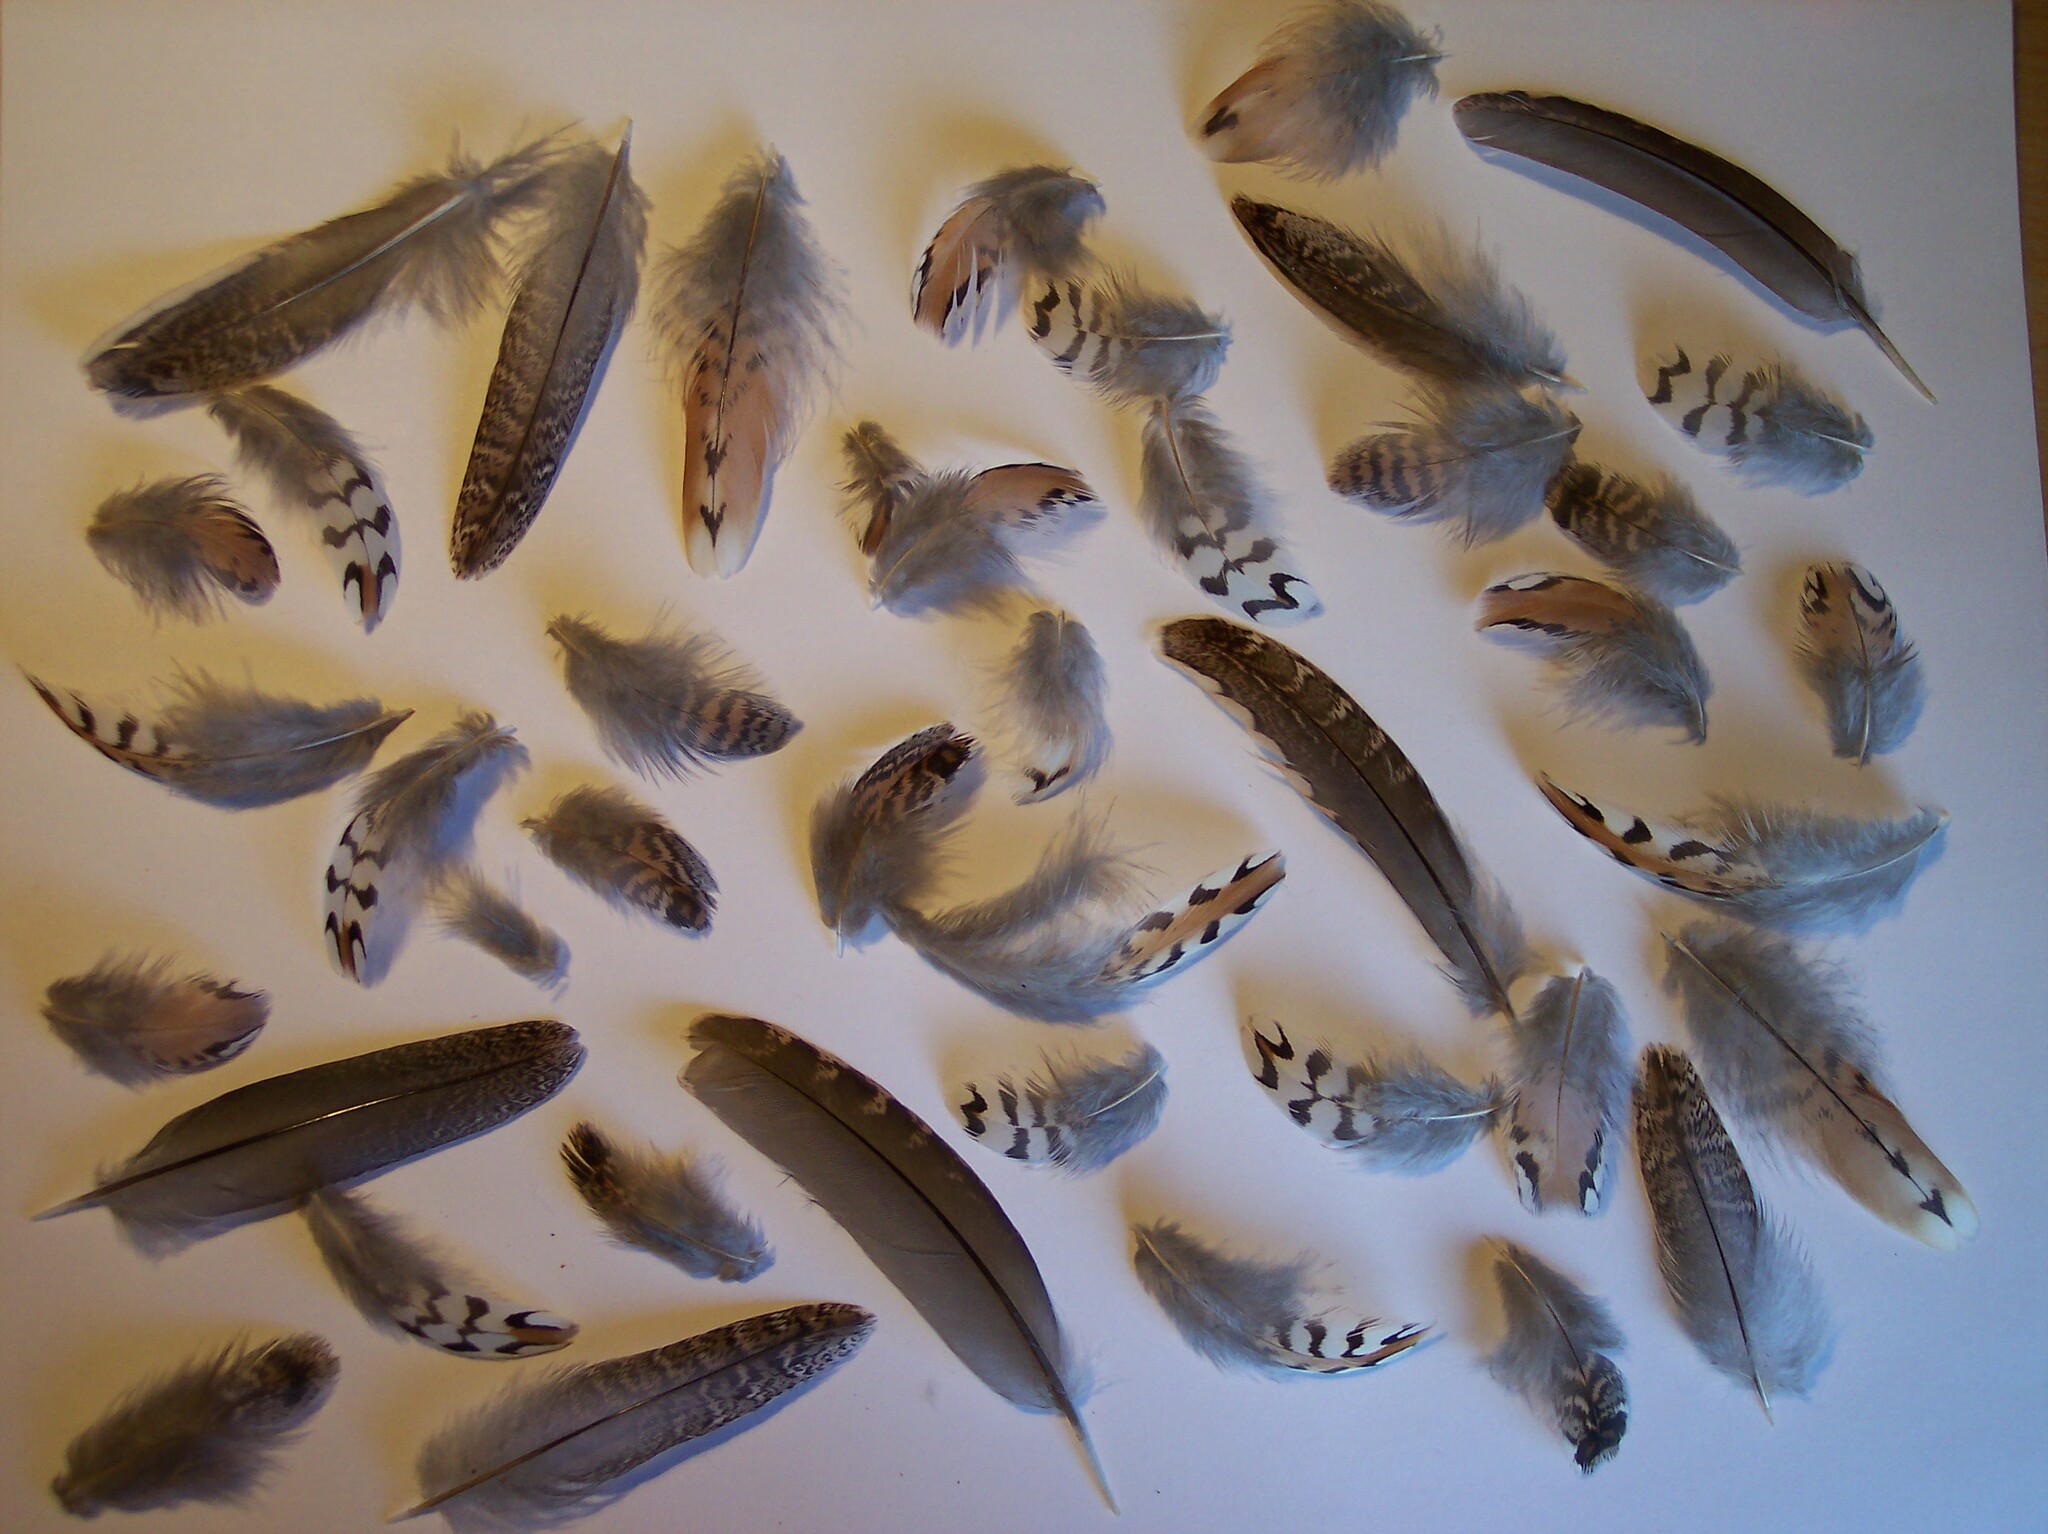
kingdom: Animalia
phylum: Chordata
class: Aves
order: Galliformes
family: Odontophoridae
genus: Colinus
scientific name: Colinus virginianus
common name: Northern bobwhite
